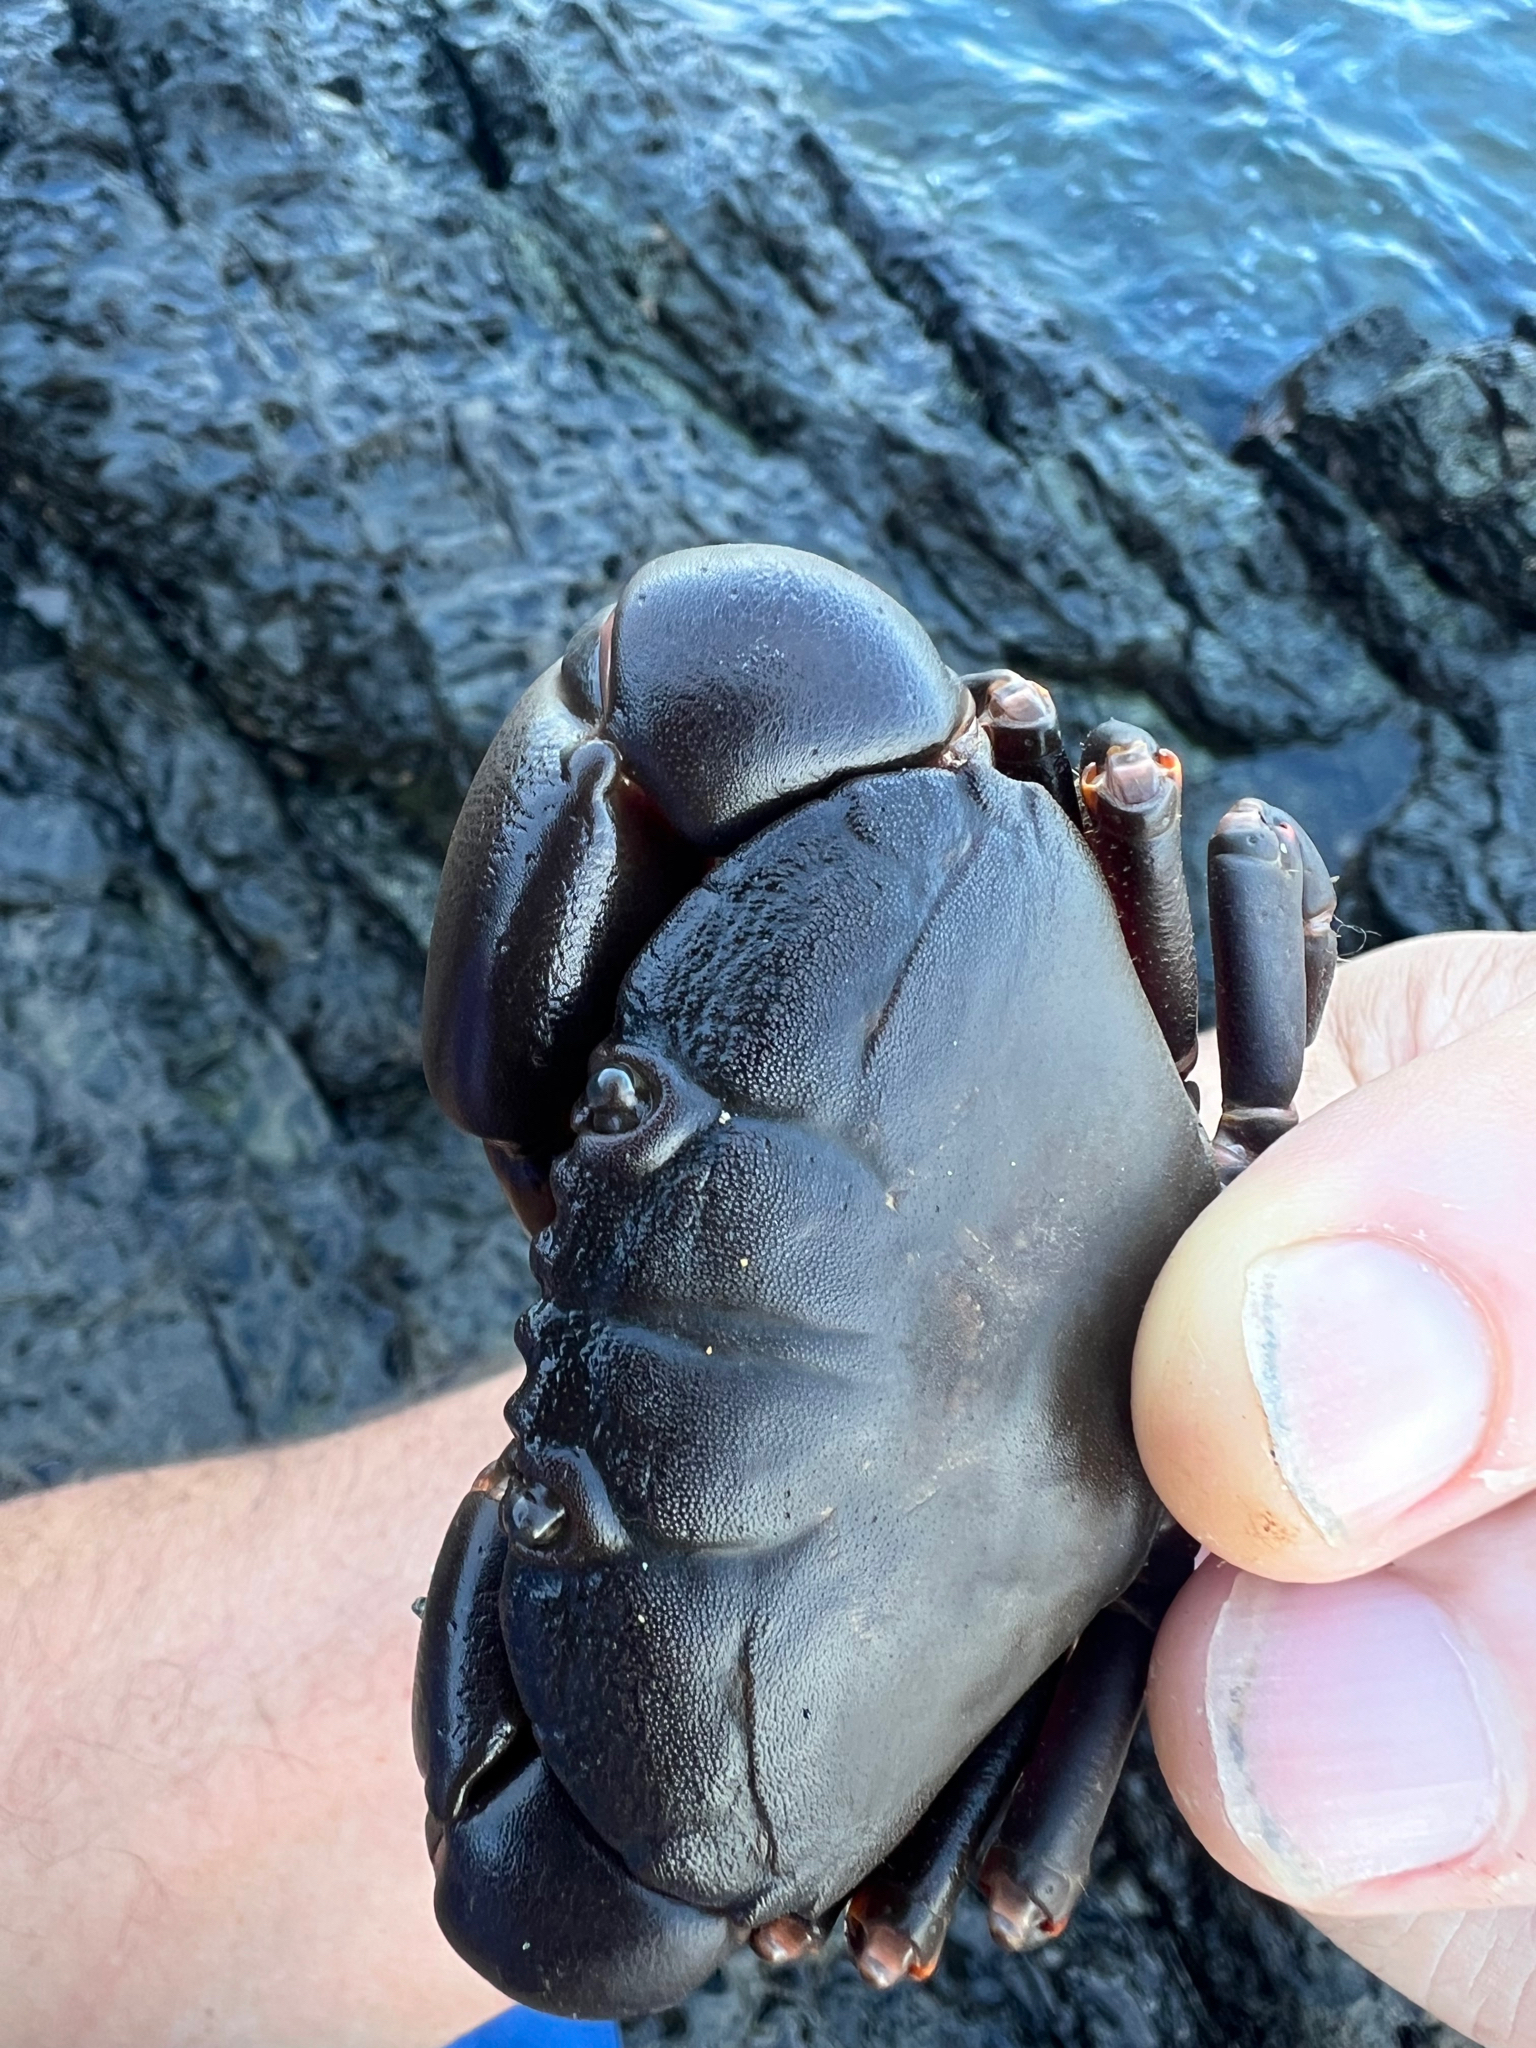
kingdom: Animalia
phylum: Arthropoda
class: Malacostraca
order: Decapoda
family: Oziidae
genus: Ozius
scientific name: Ozius verreauxii
